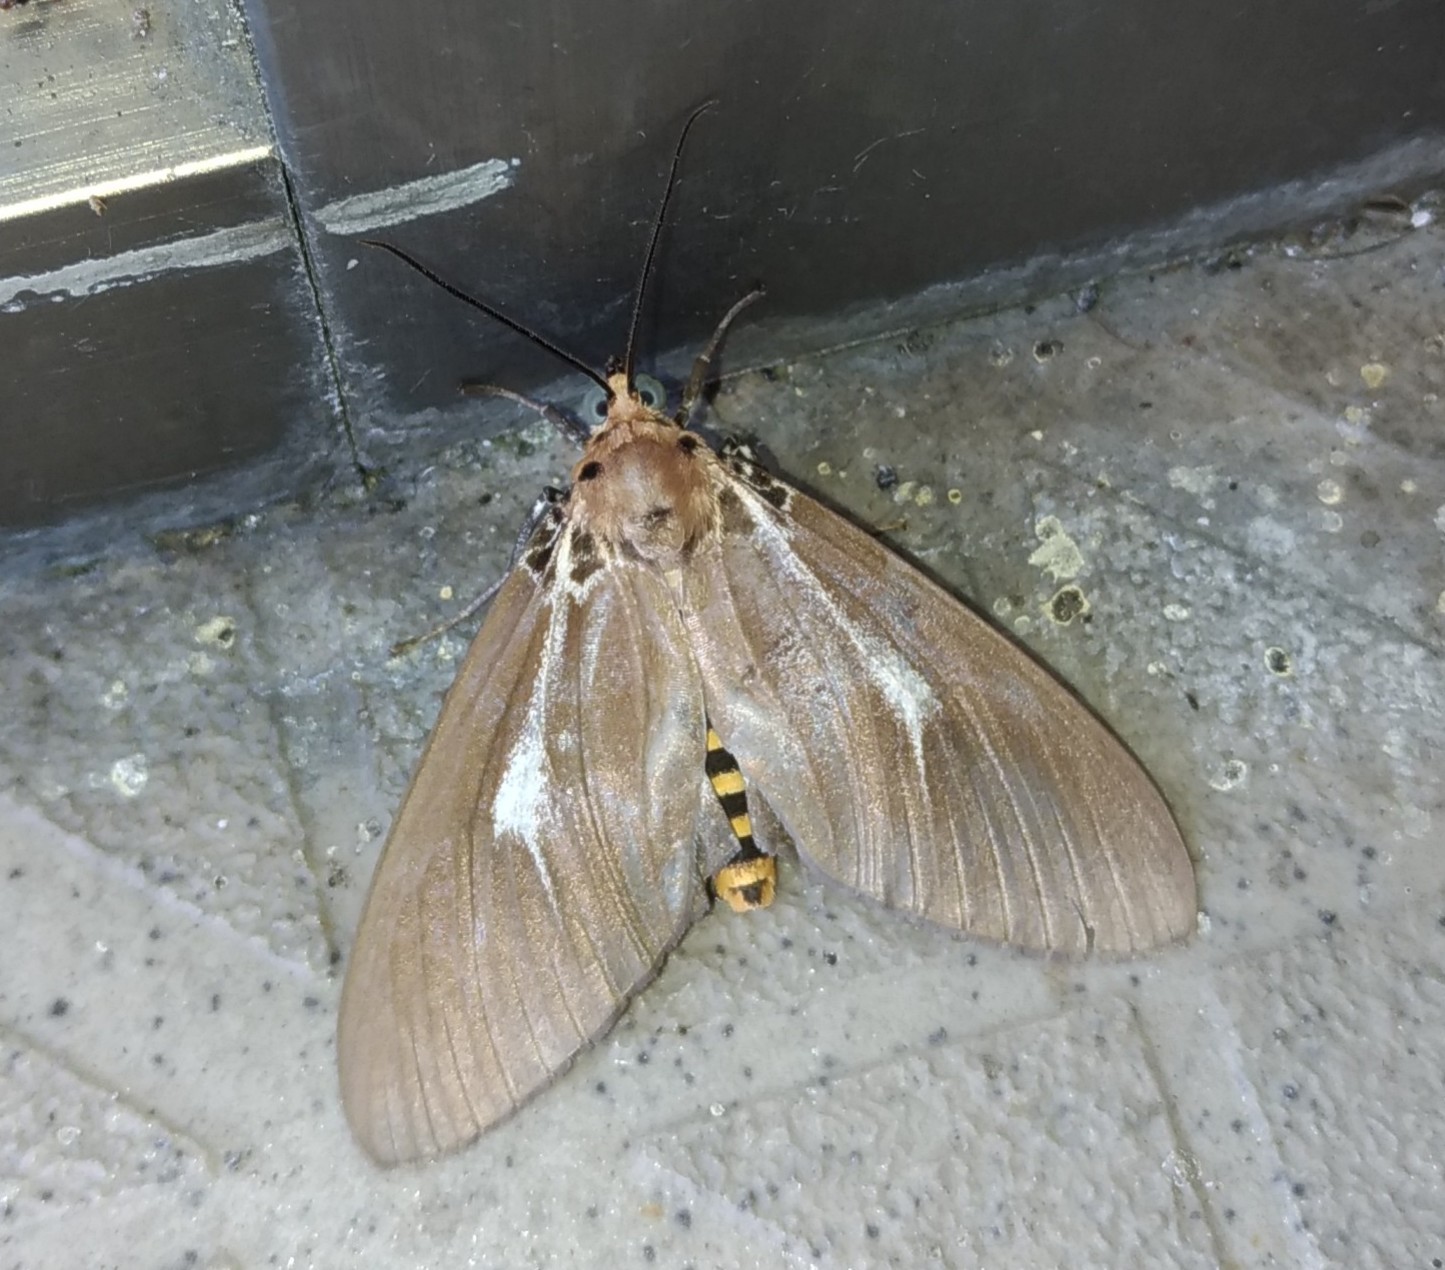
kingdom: Animalia
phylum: Arthropoda
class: Insecta
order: Lepidoptera
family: Erebidae
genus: Asota
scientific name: Asota heliconia
